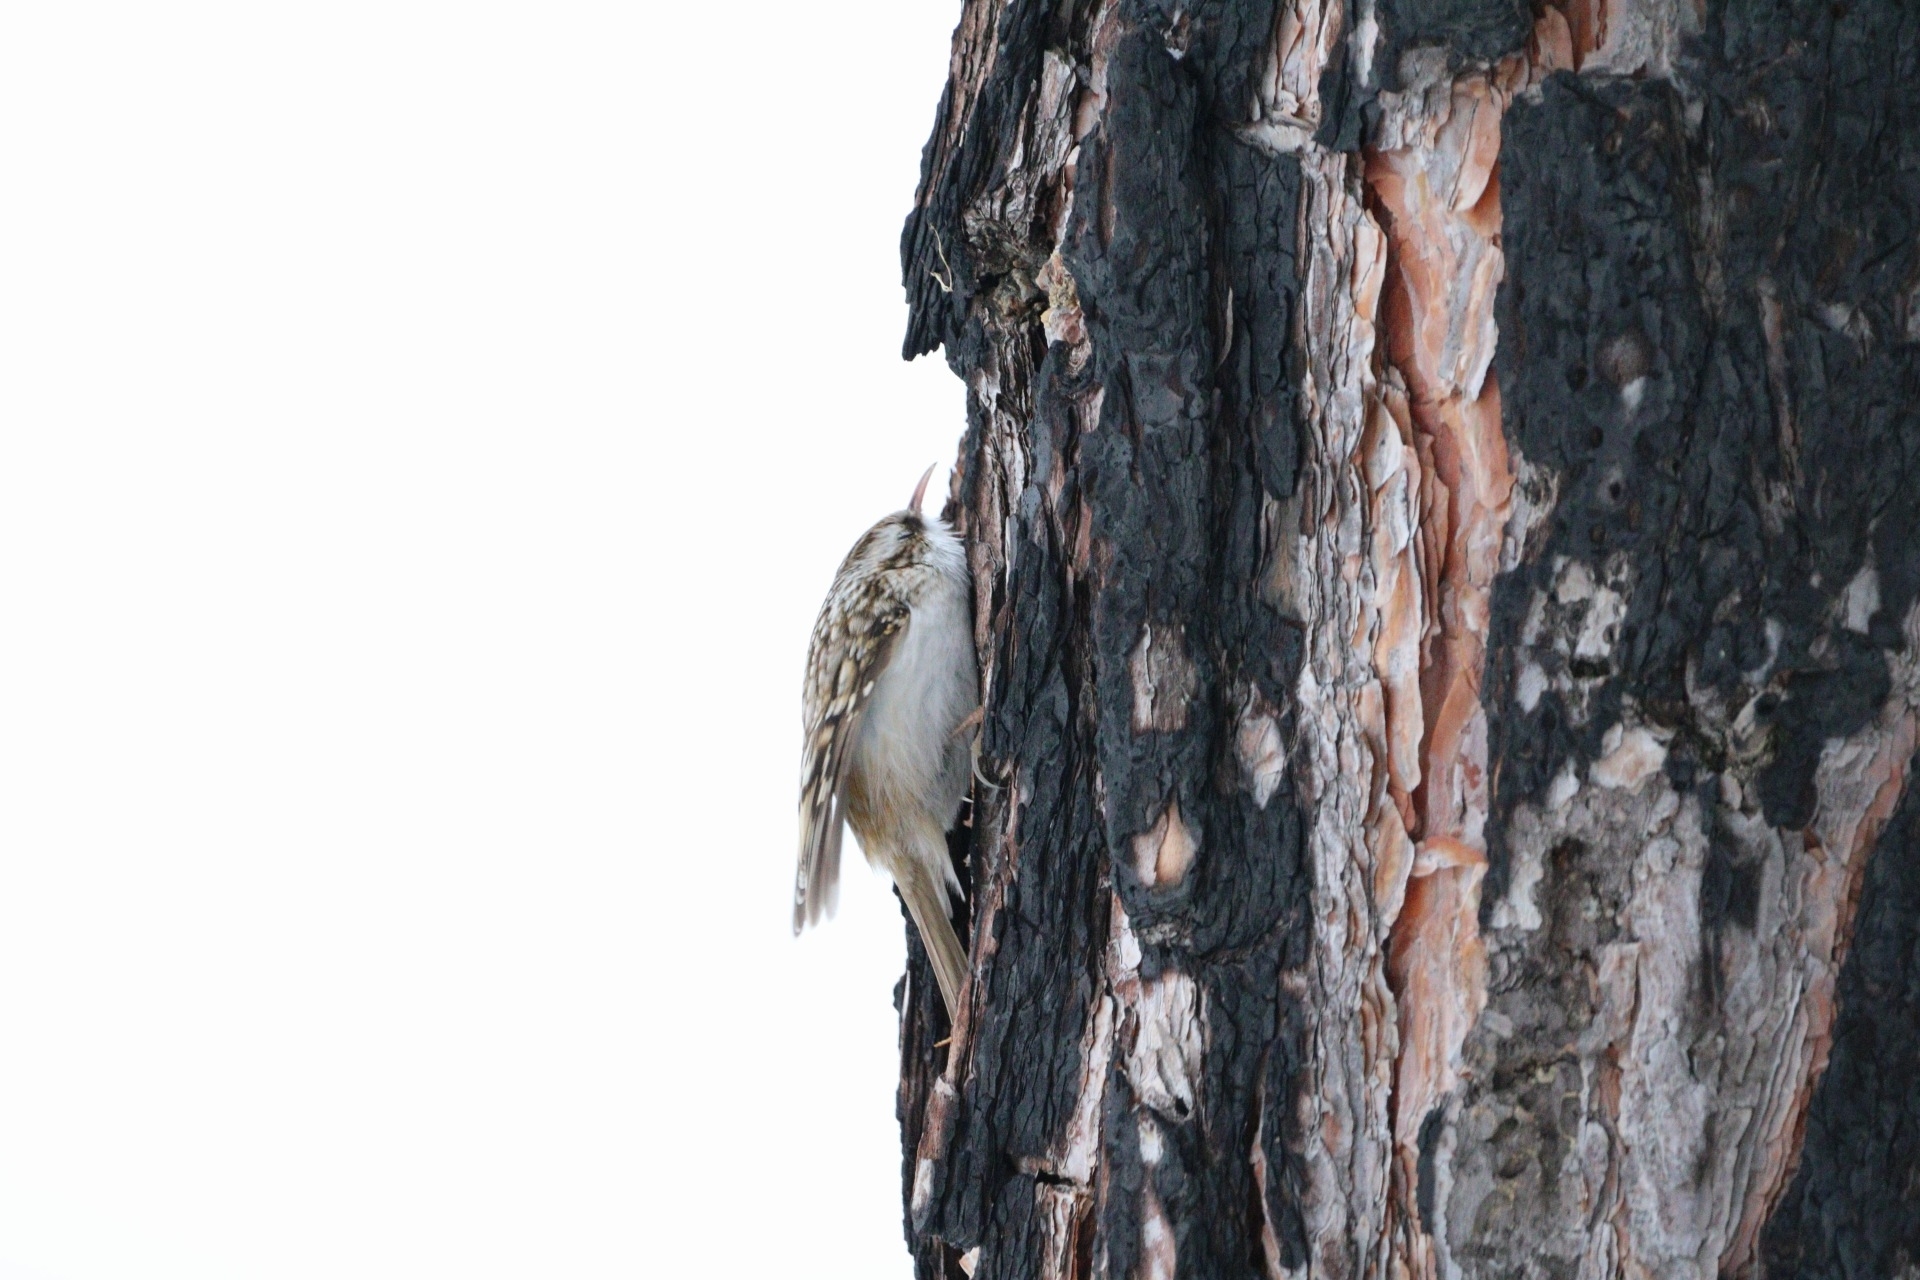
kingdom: Animalia
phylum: Chordata
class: Aves
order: Passeriformes
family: Certhiidae
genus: Certhia
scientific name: Certhia familiaris
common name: Eurasian treecreeper
